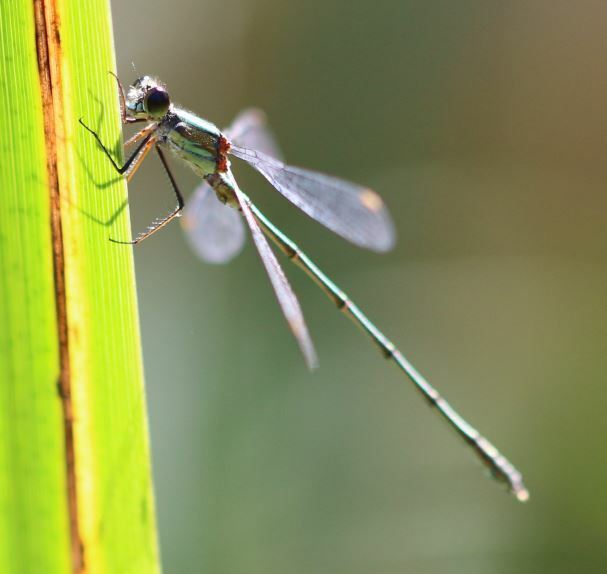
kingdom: Animalia
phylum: Arthropoda
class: Insecta
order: Odonata
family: Lestidae
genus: Chalcolestes
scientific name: Chalcolestes viridis
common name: Green emerald damselfly
